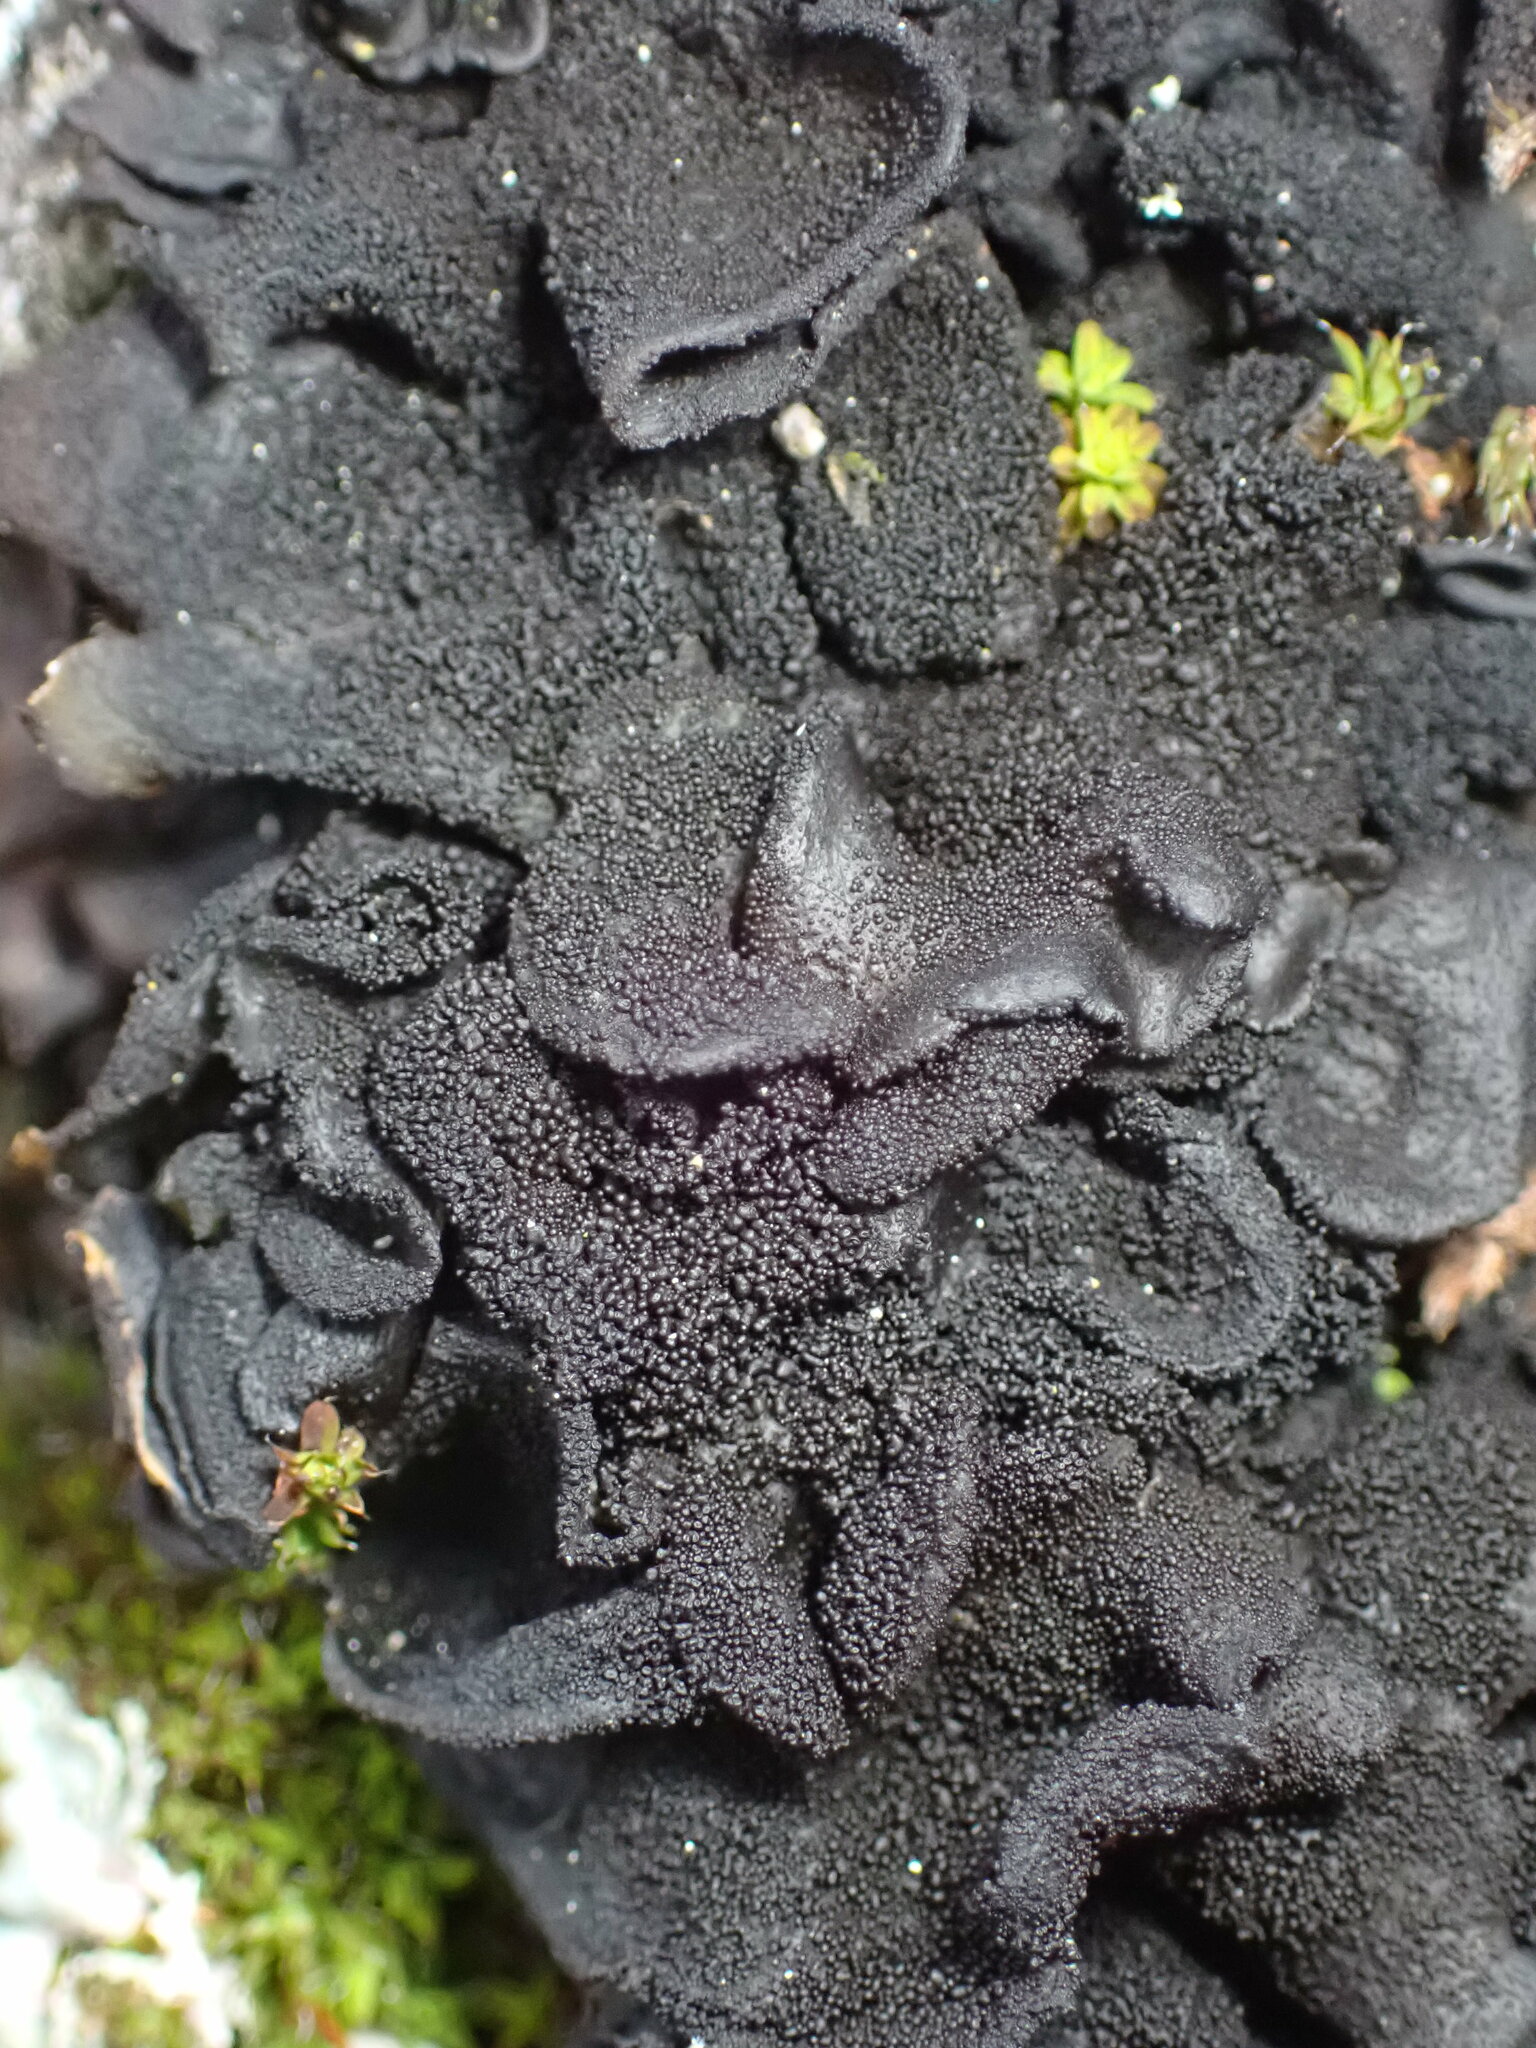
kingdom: Fungi
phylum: Ascomycota
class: Lecanoromycetes
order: Peltigerales
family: Collemataceae
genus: Collema
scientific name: Collema subflaccidum
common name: Tree jelly
